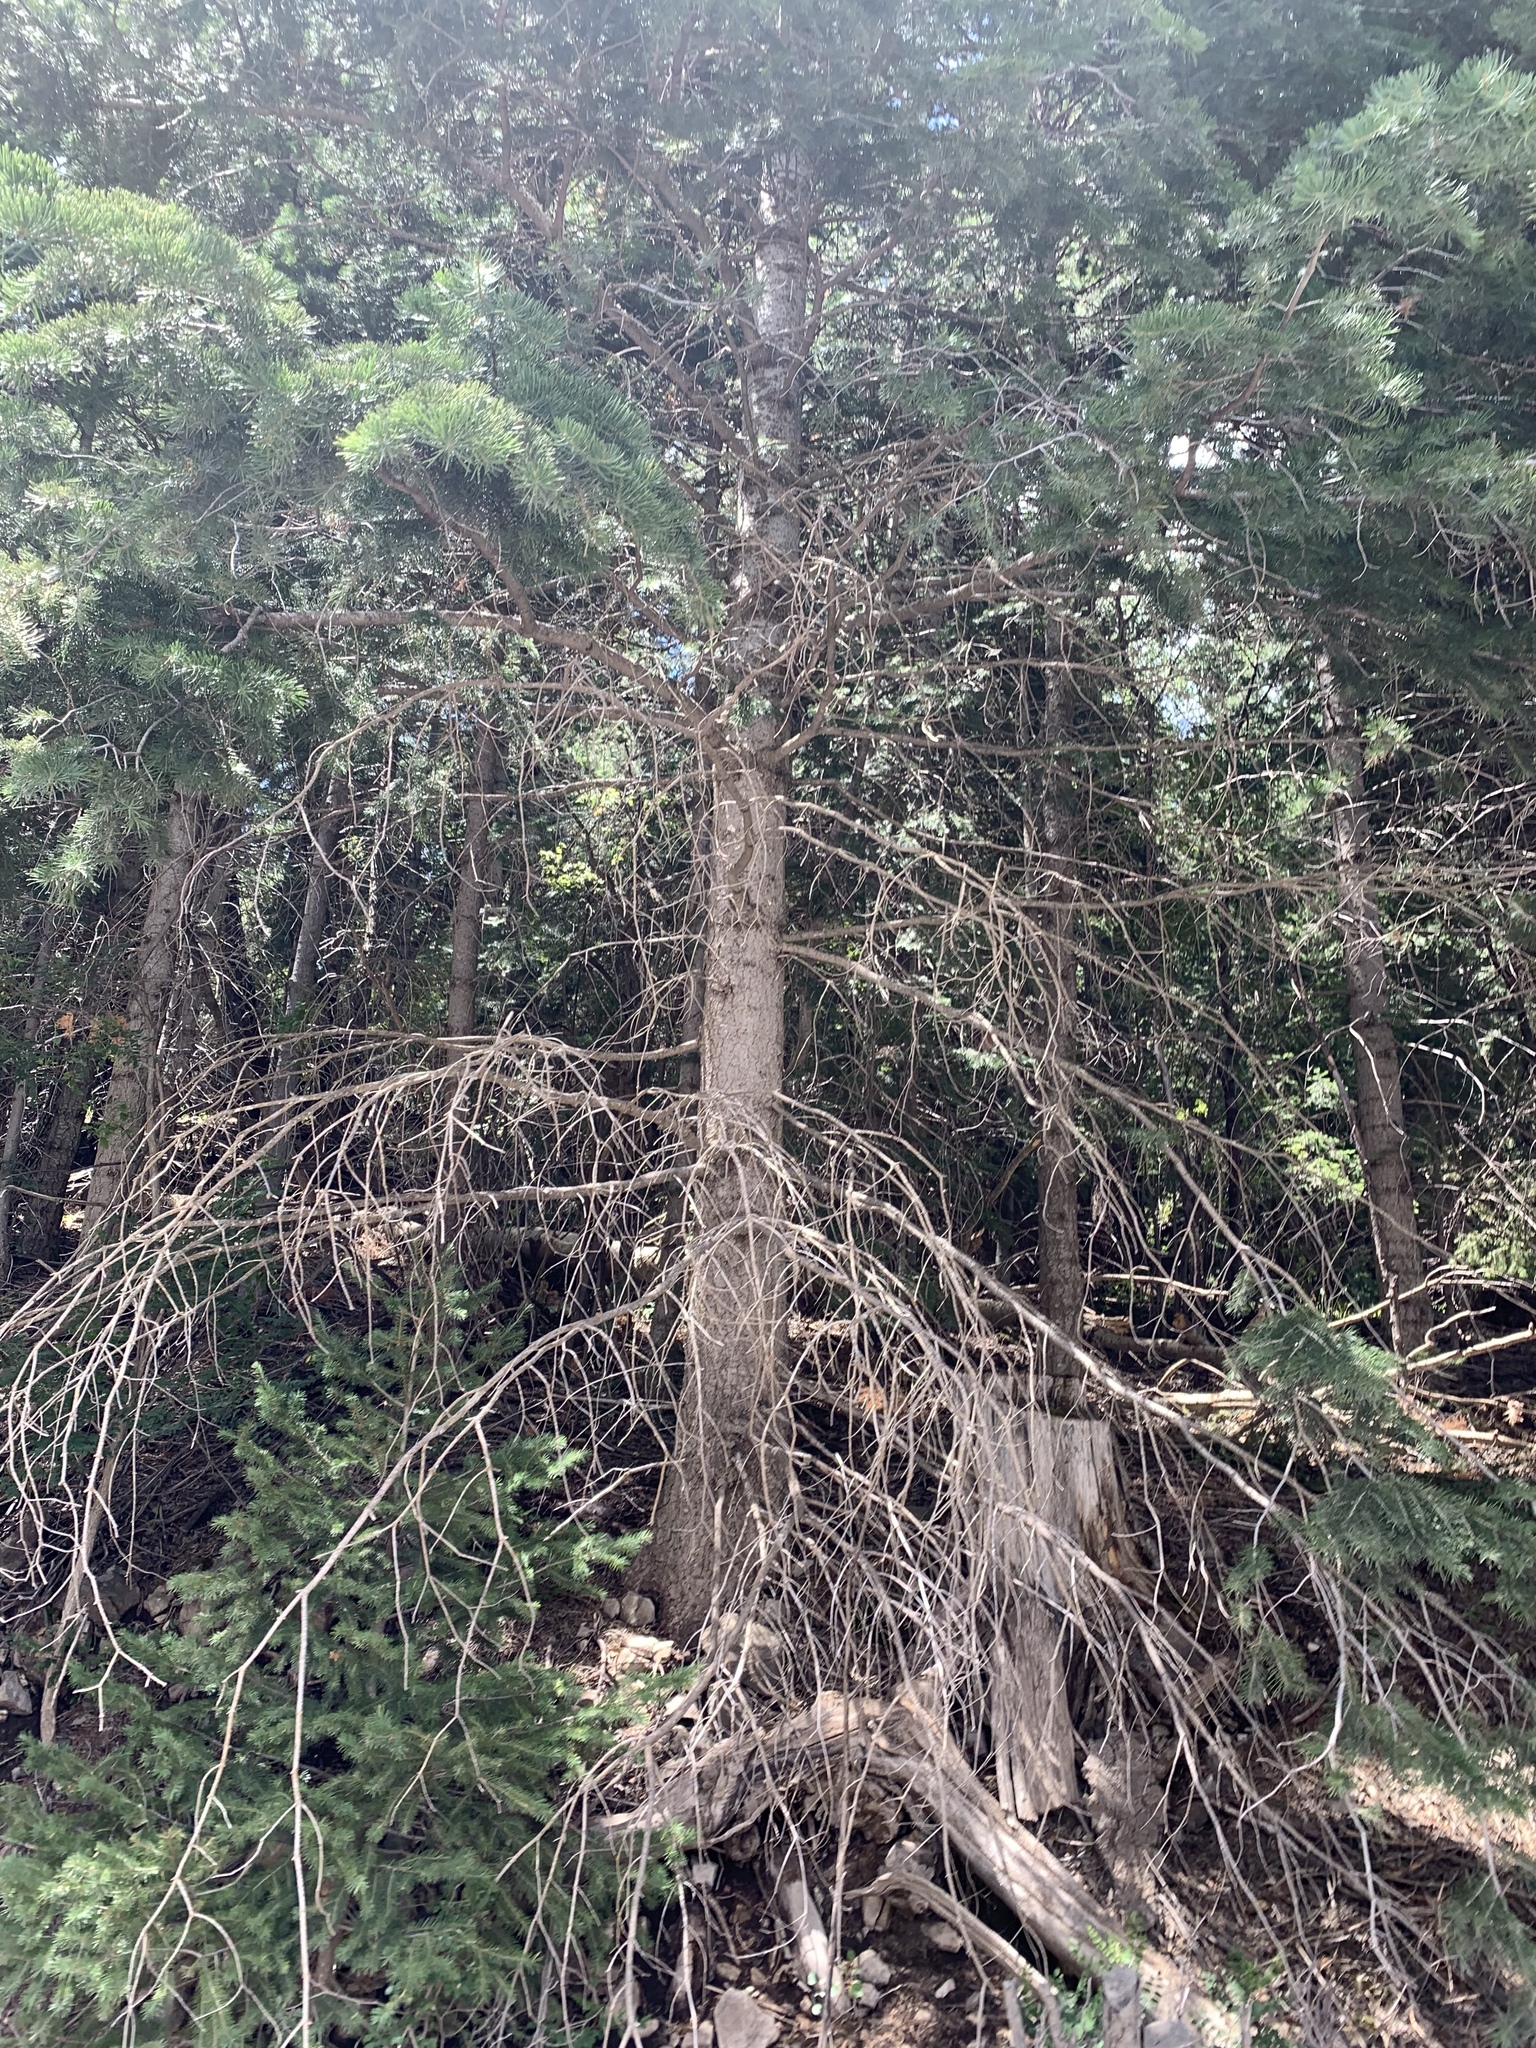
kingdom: Plantae
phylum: Tracheophyta
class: Pinopsida
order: Pinales
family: Pinaceae
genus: Abies
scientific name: Abies concolor
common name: Colorado fir
